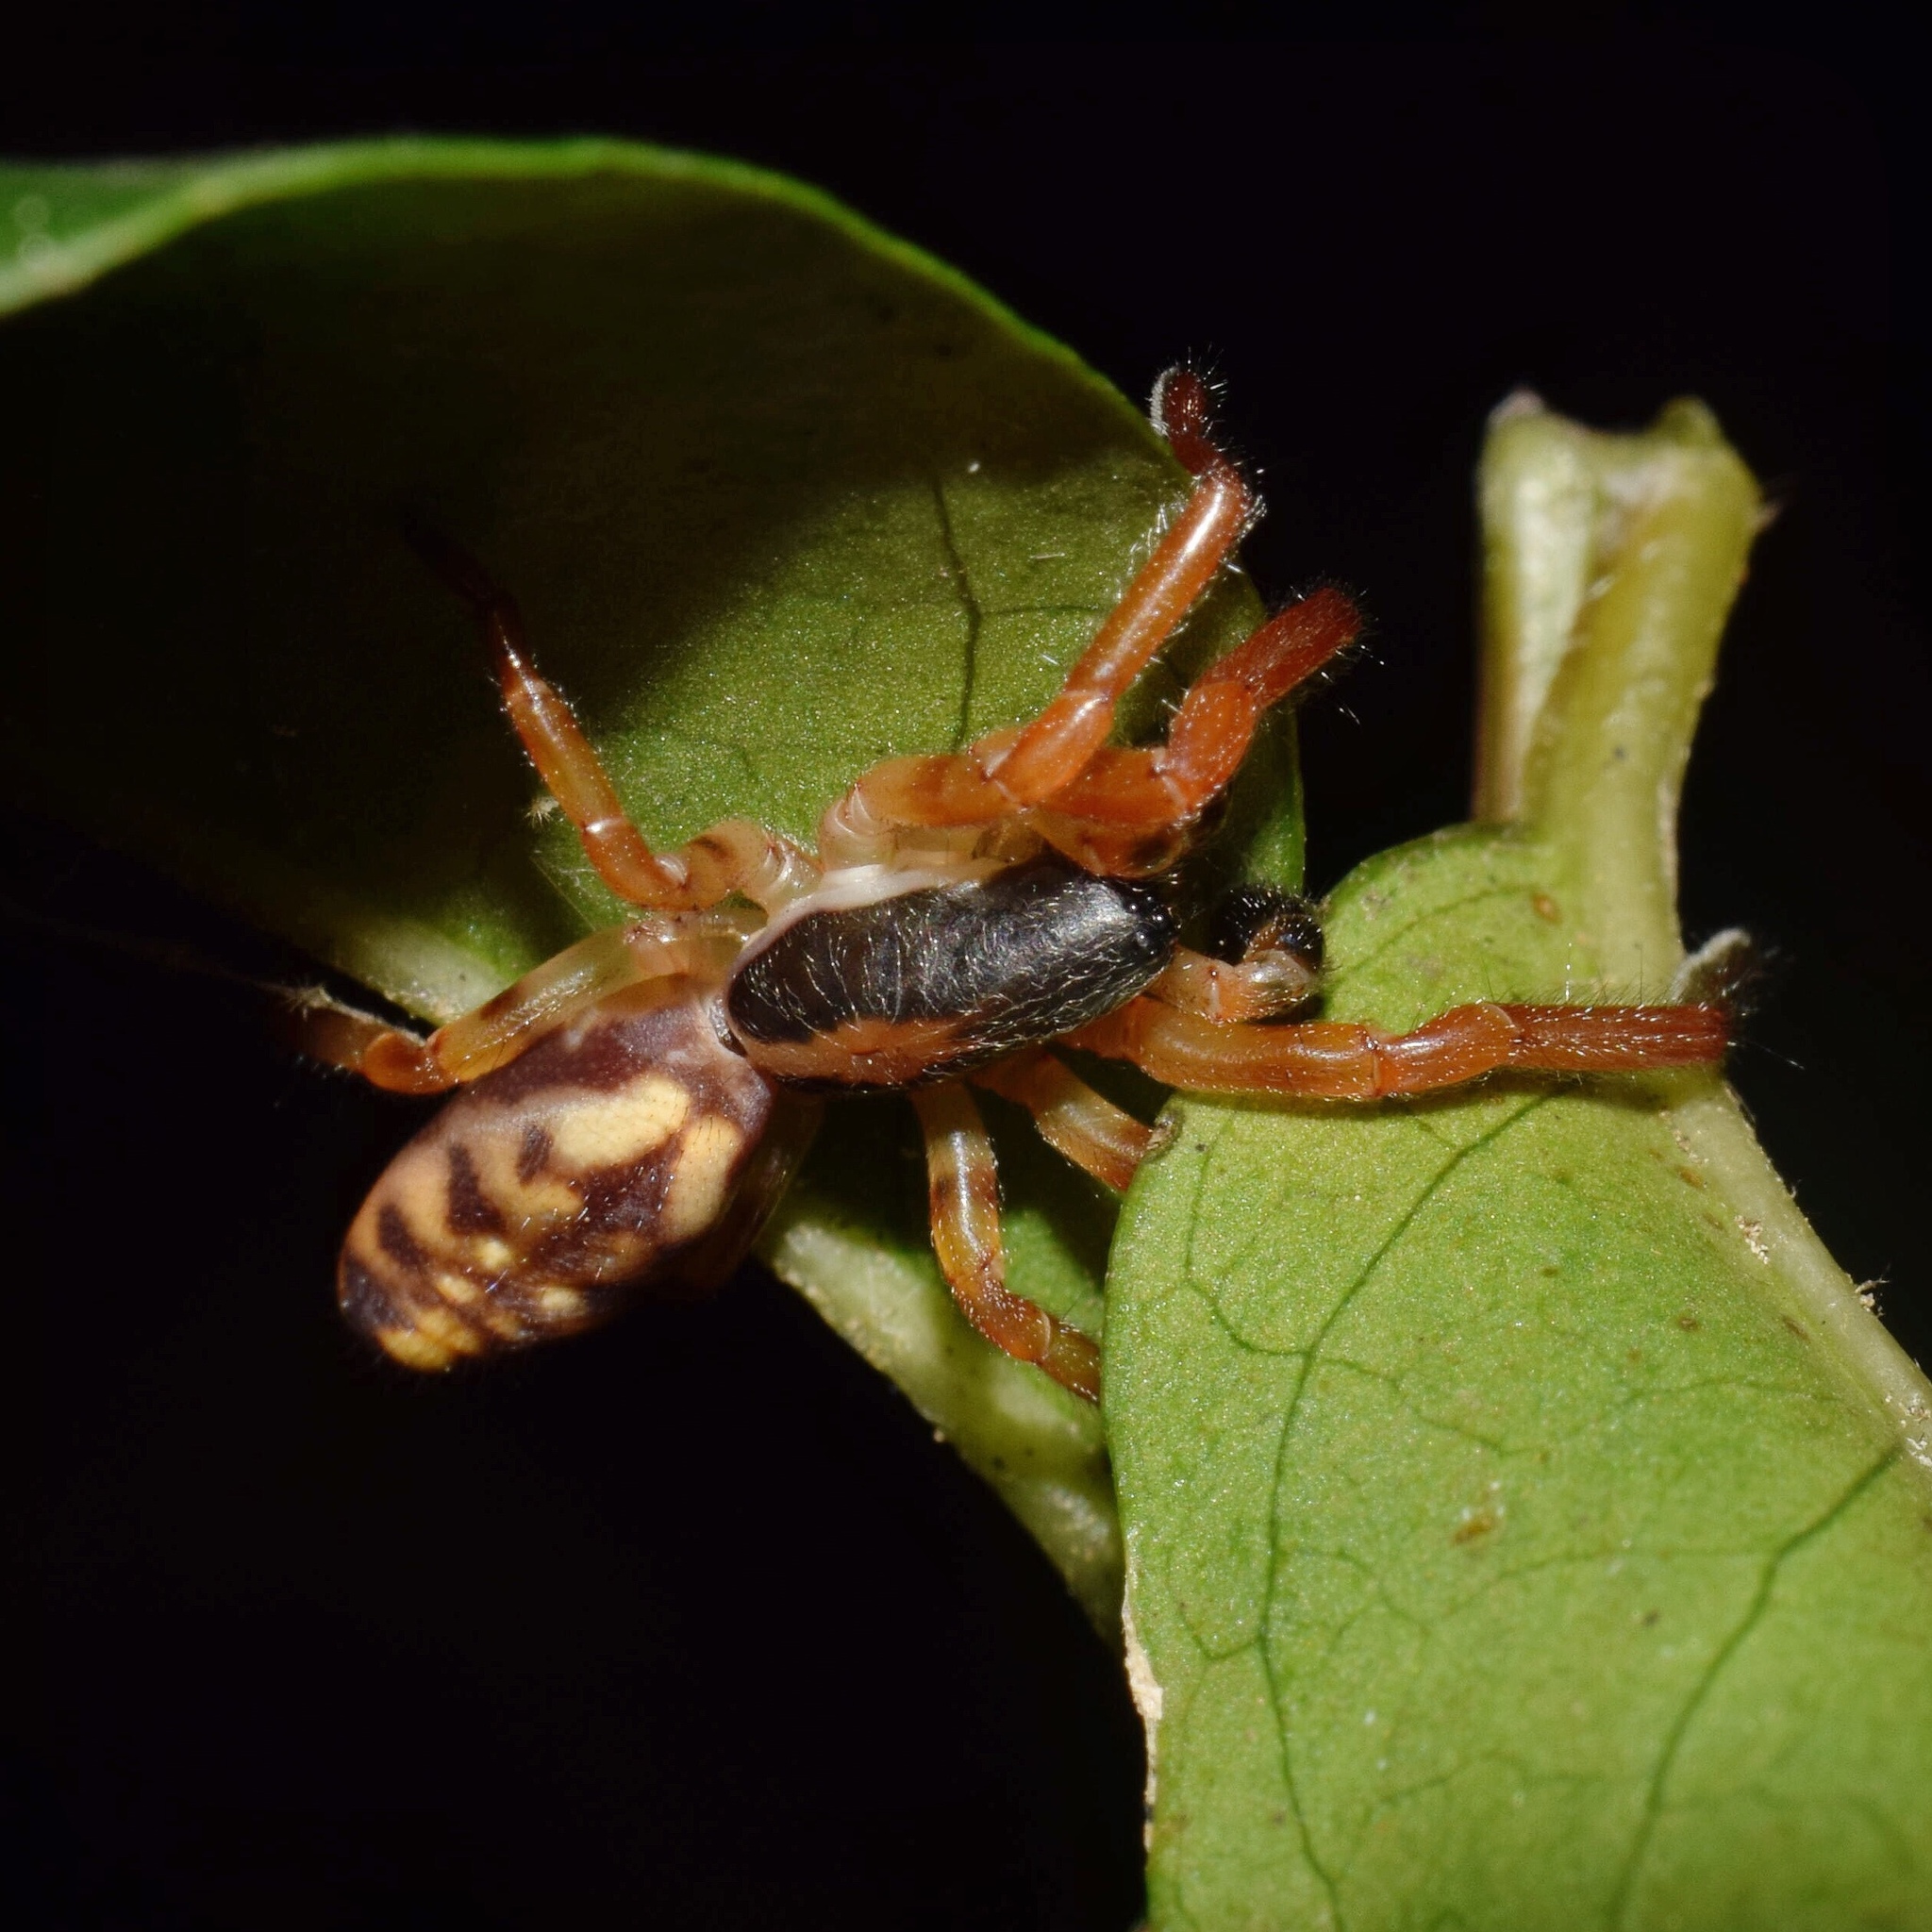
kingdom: Animalia
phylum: Arthropoda
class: Arachnida
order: Araneae
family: Zodariidae
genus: Cicynethus
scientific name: Cicynethus decoratus
